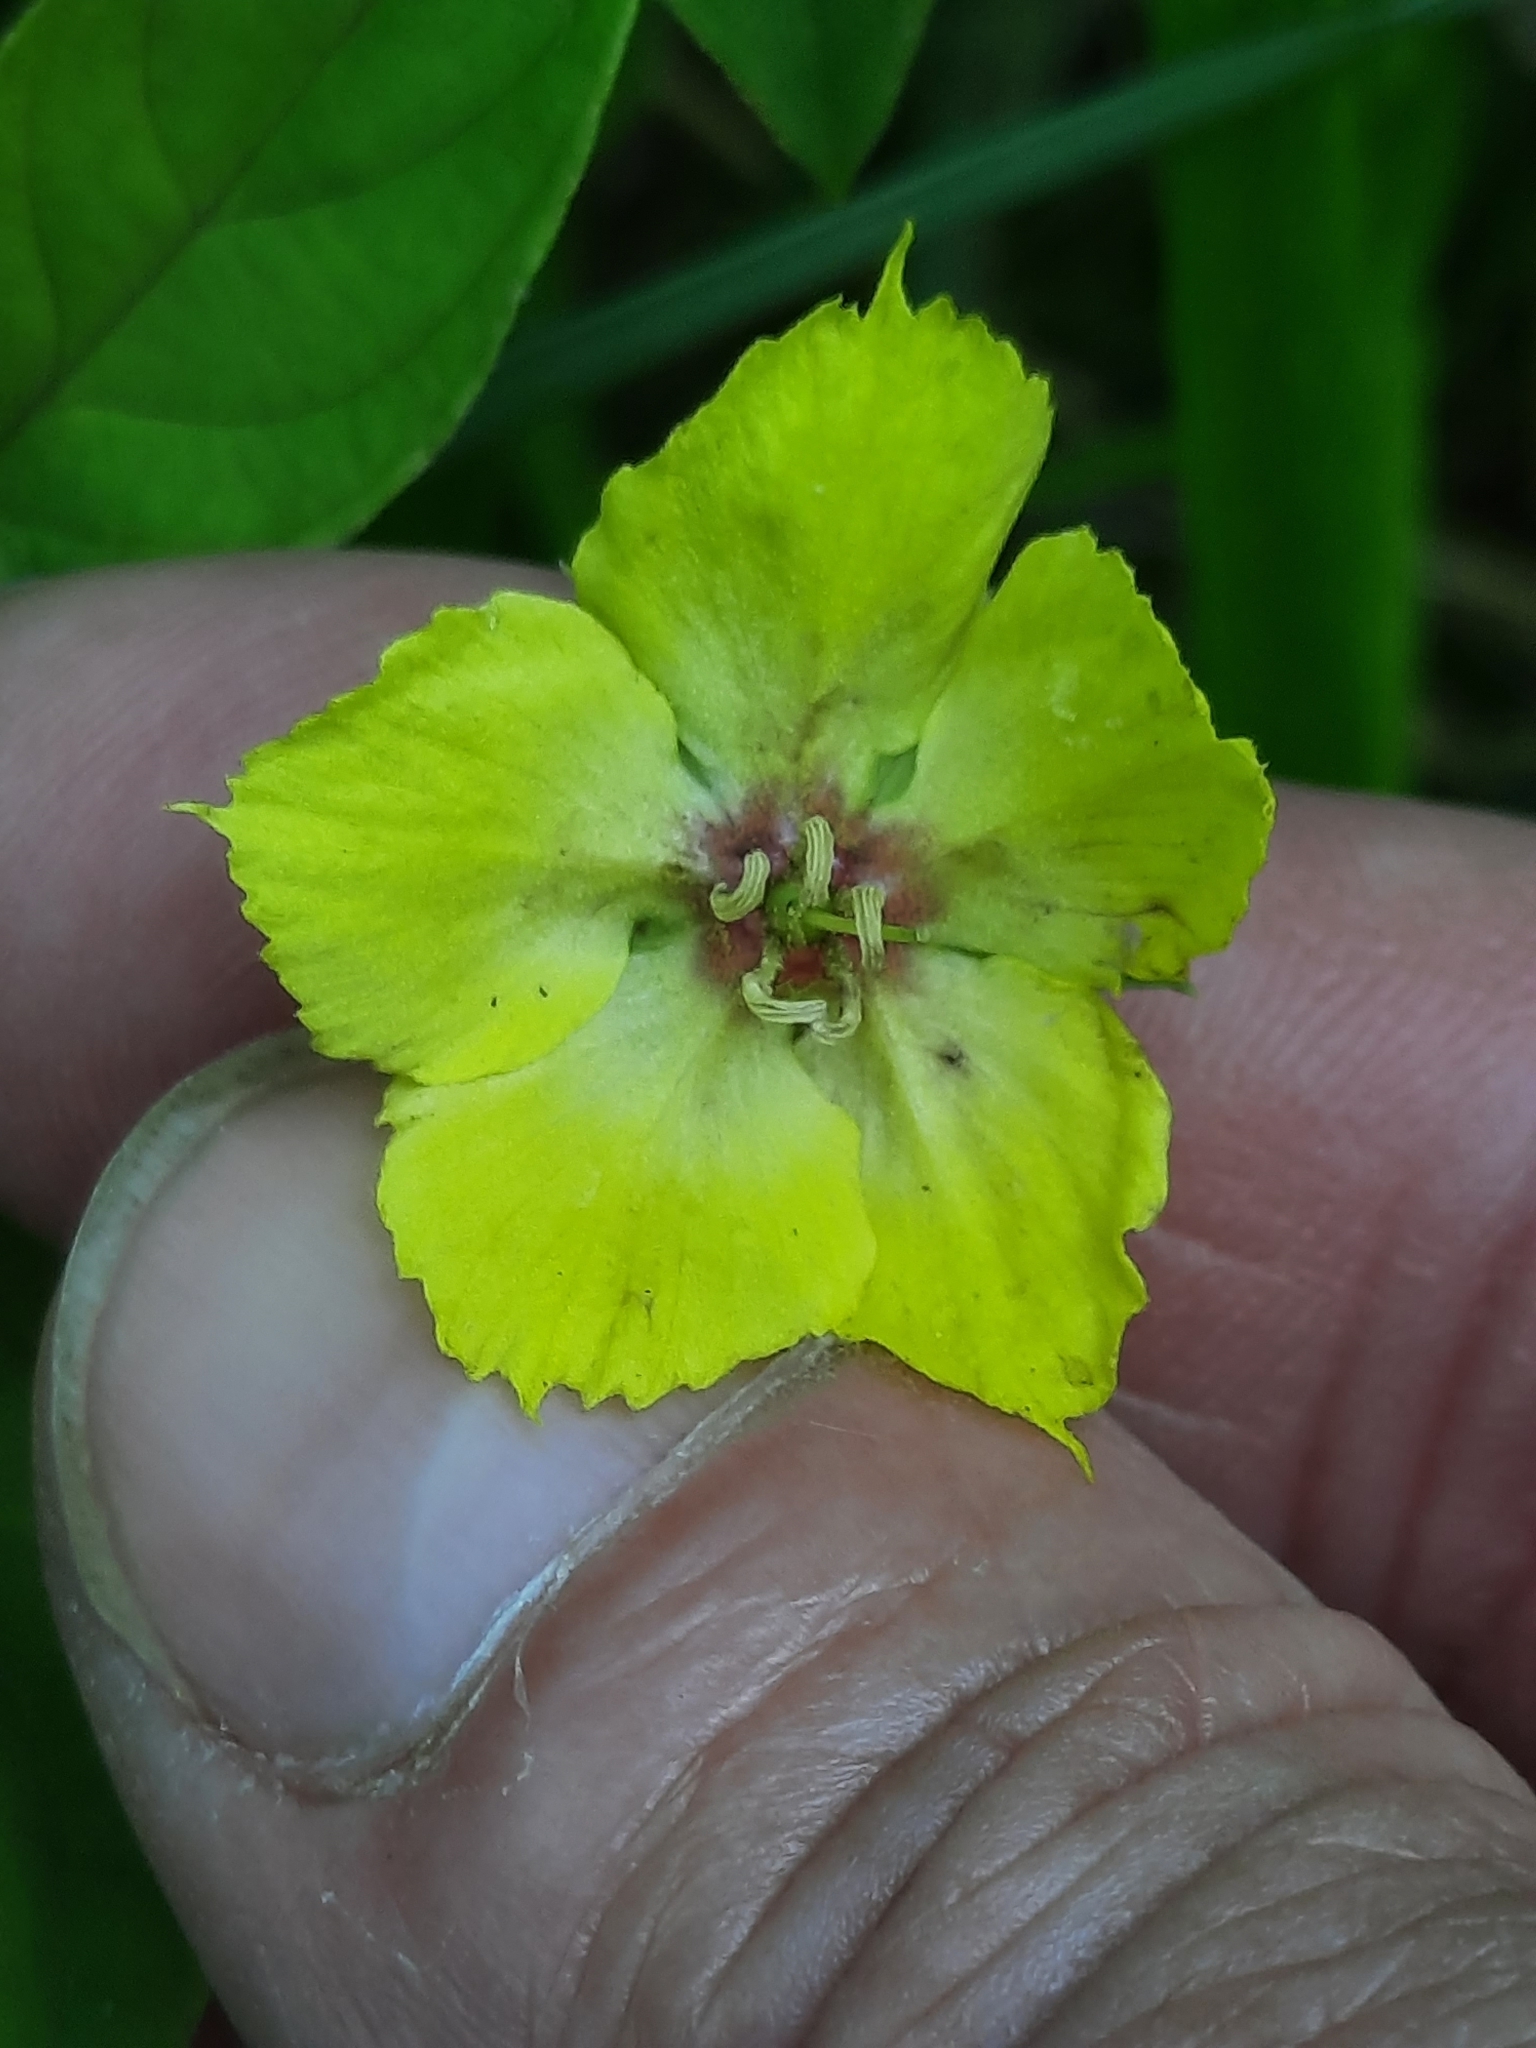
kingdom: Plantae
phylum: Tracheophyta
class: Magnoliopsida
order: Ericales
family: Primulaceae
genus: Lysimachia
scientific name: Lysimachia ciliata
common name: Fringed loosestrife
